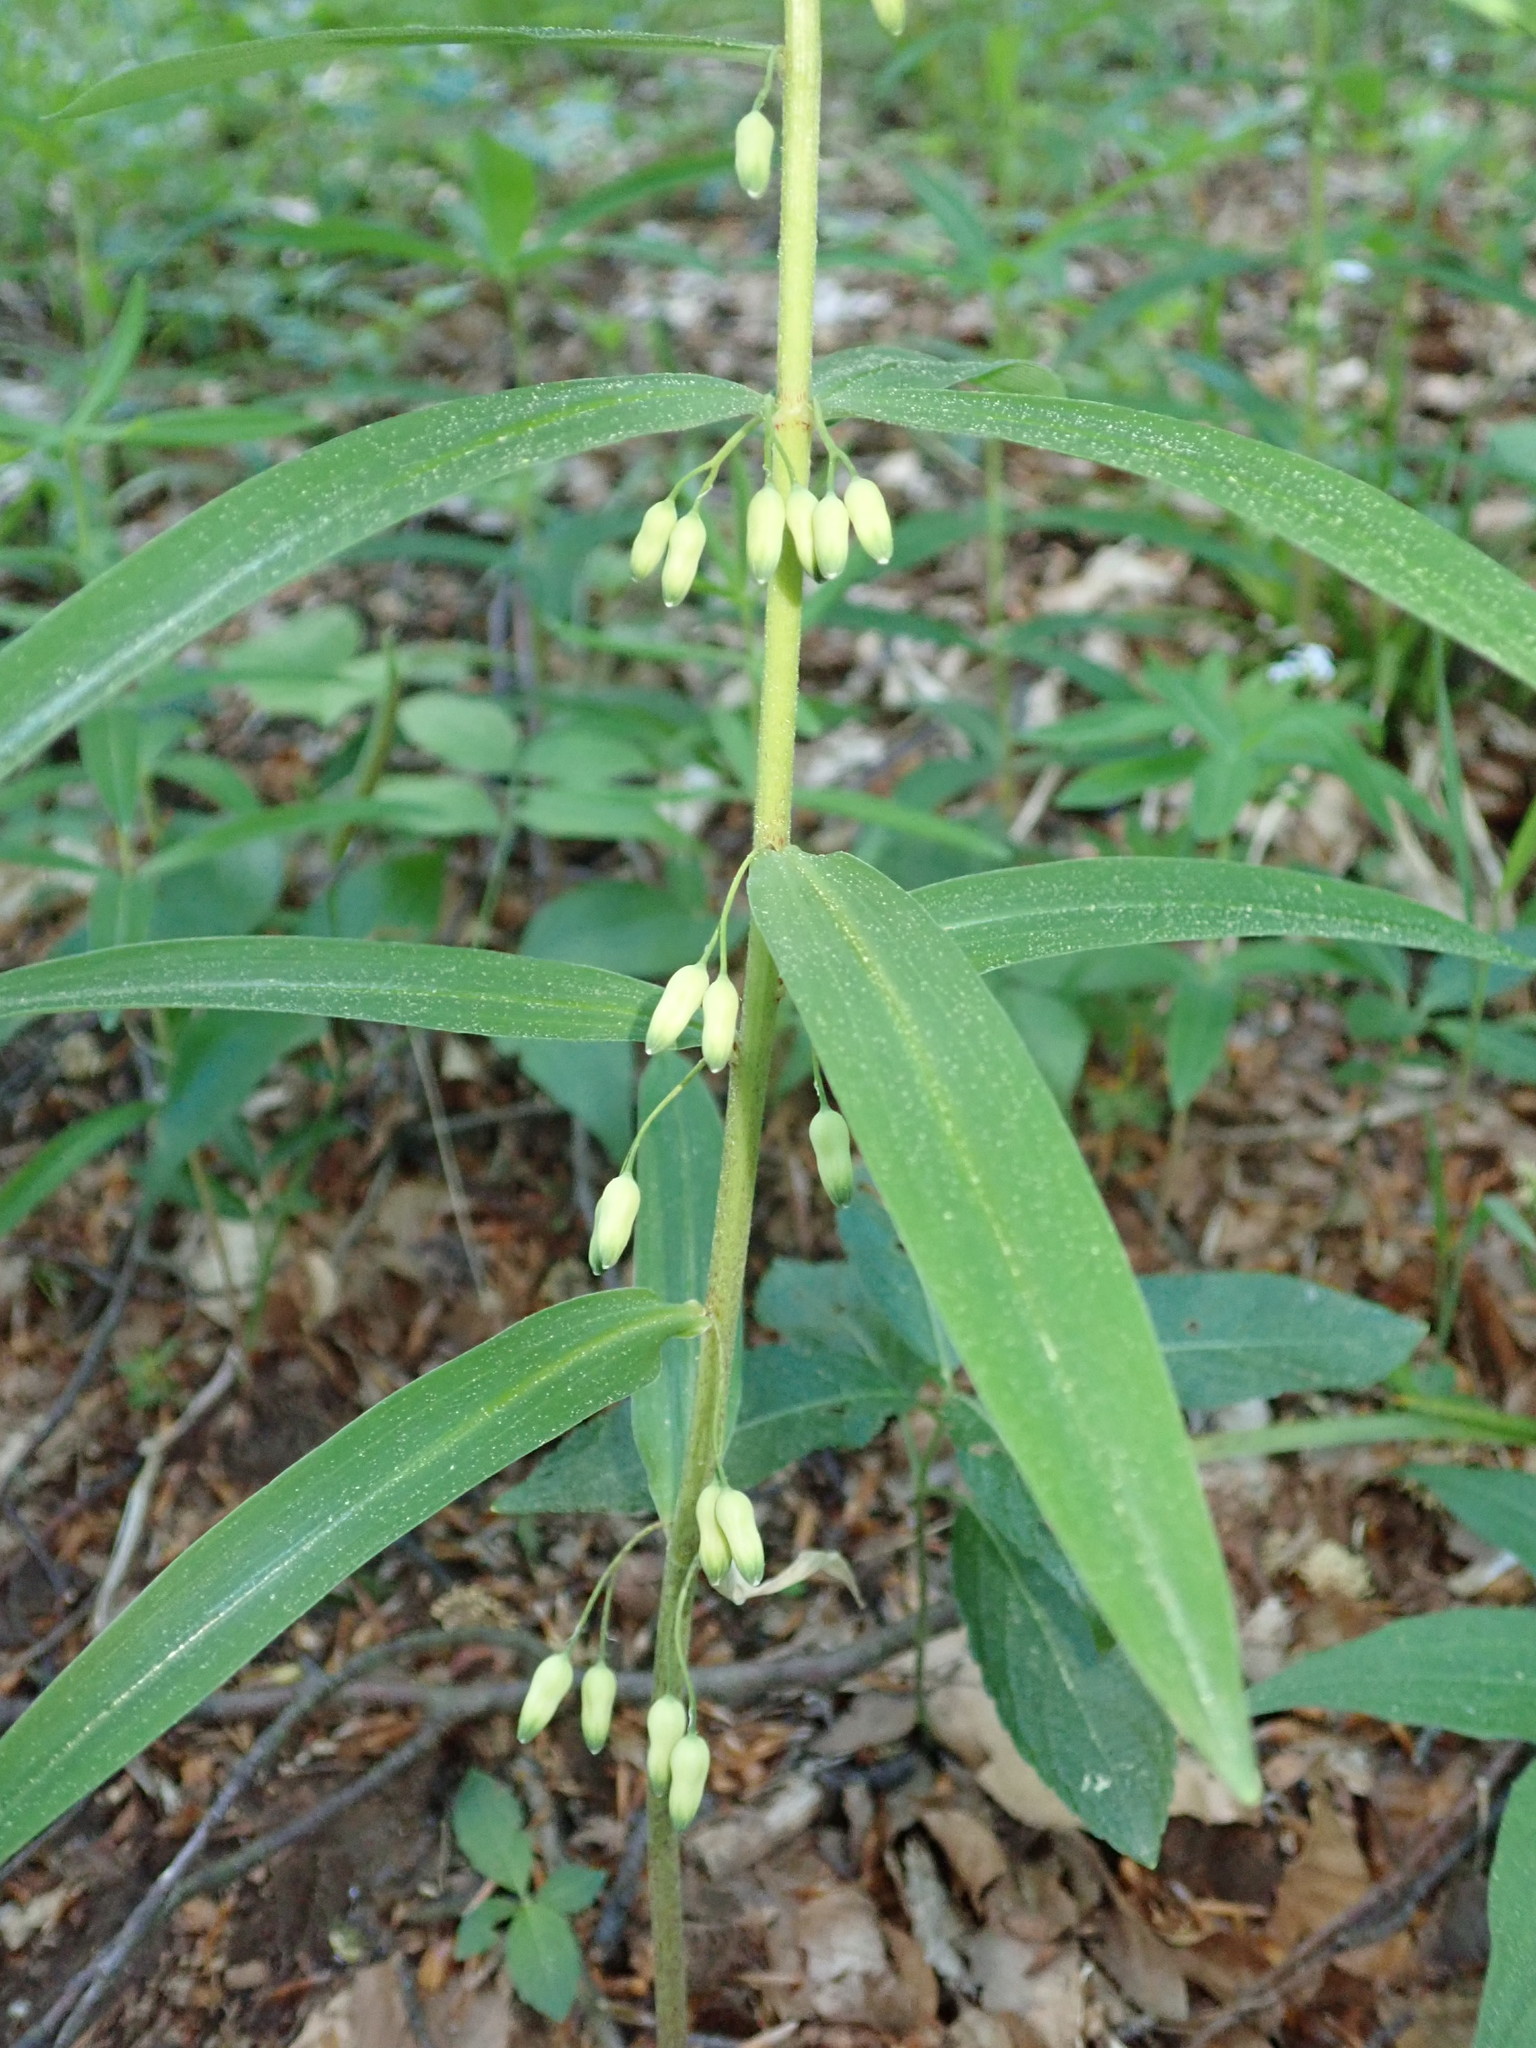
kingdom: Plantae
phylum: Tracheophyta
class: Liliopsida
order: Asparagales
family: Asparagaceae
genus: Polygonatum
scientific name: Polygonatum verticillatum
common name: Whorled solomon's-seal
